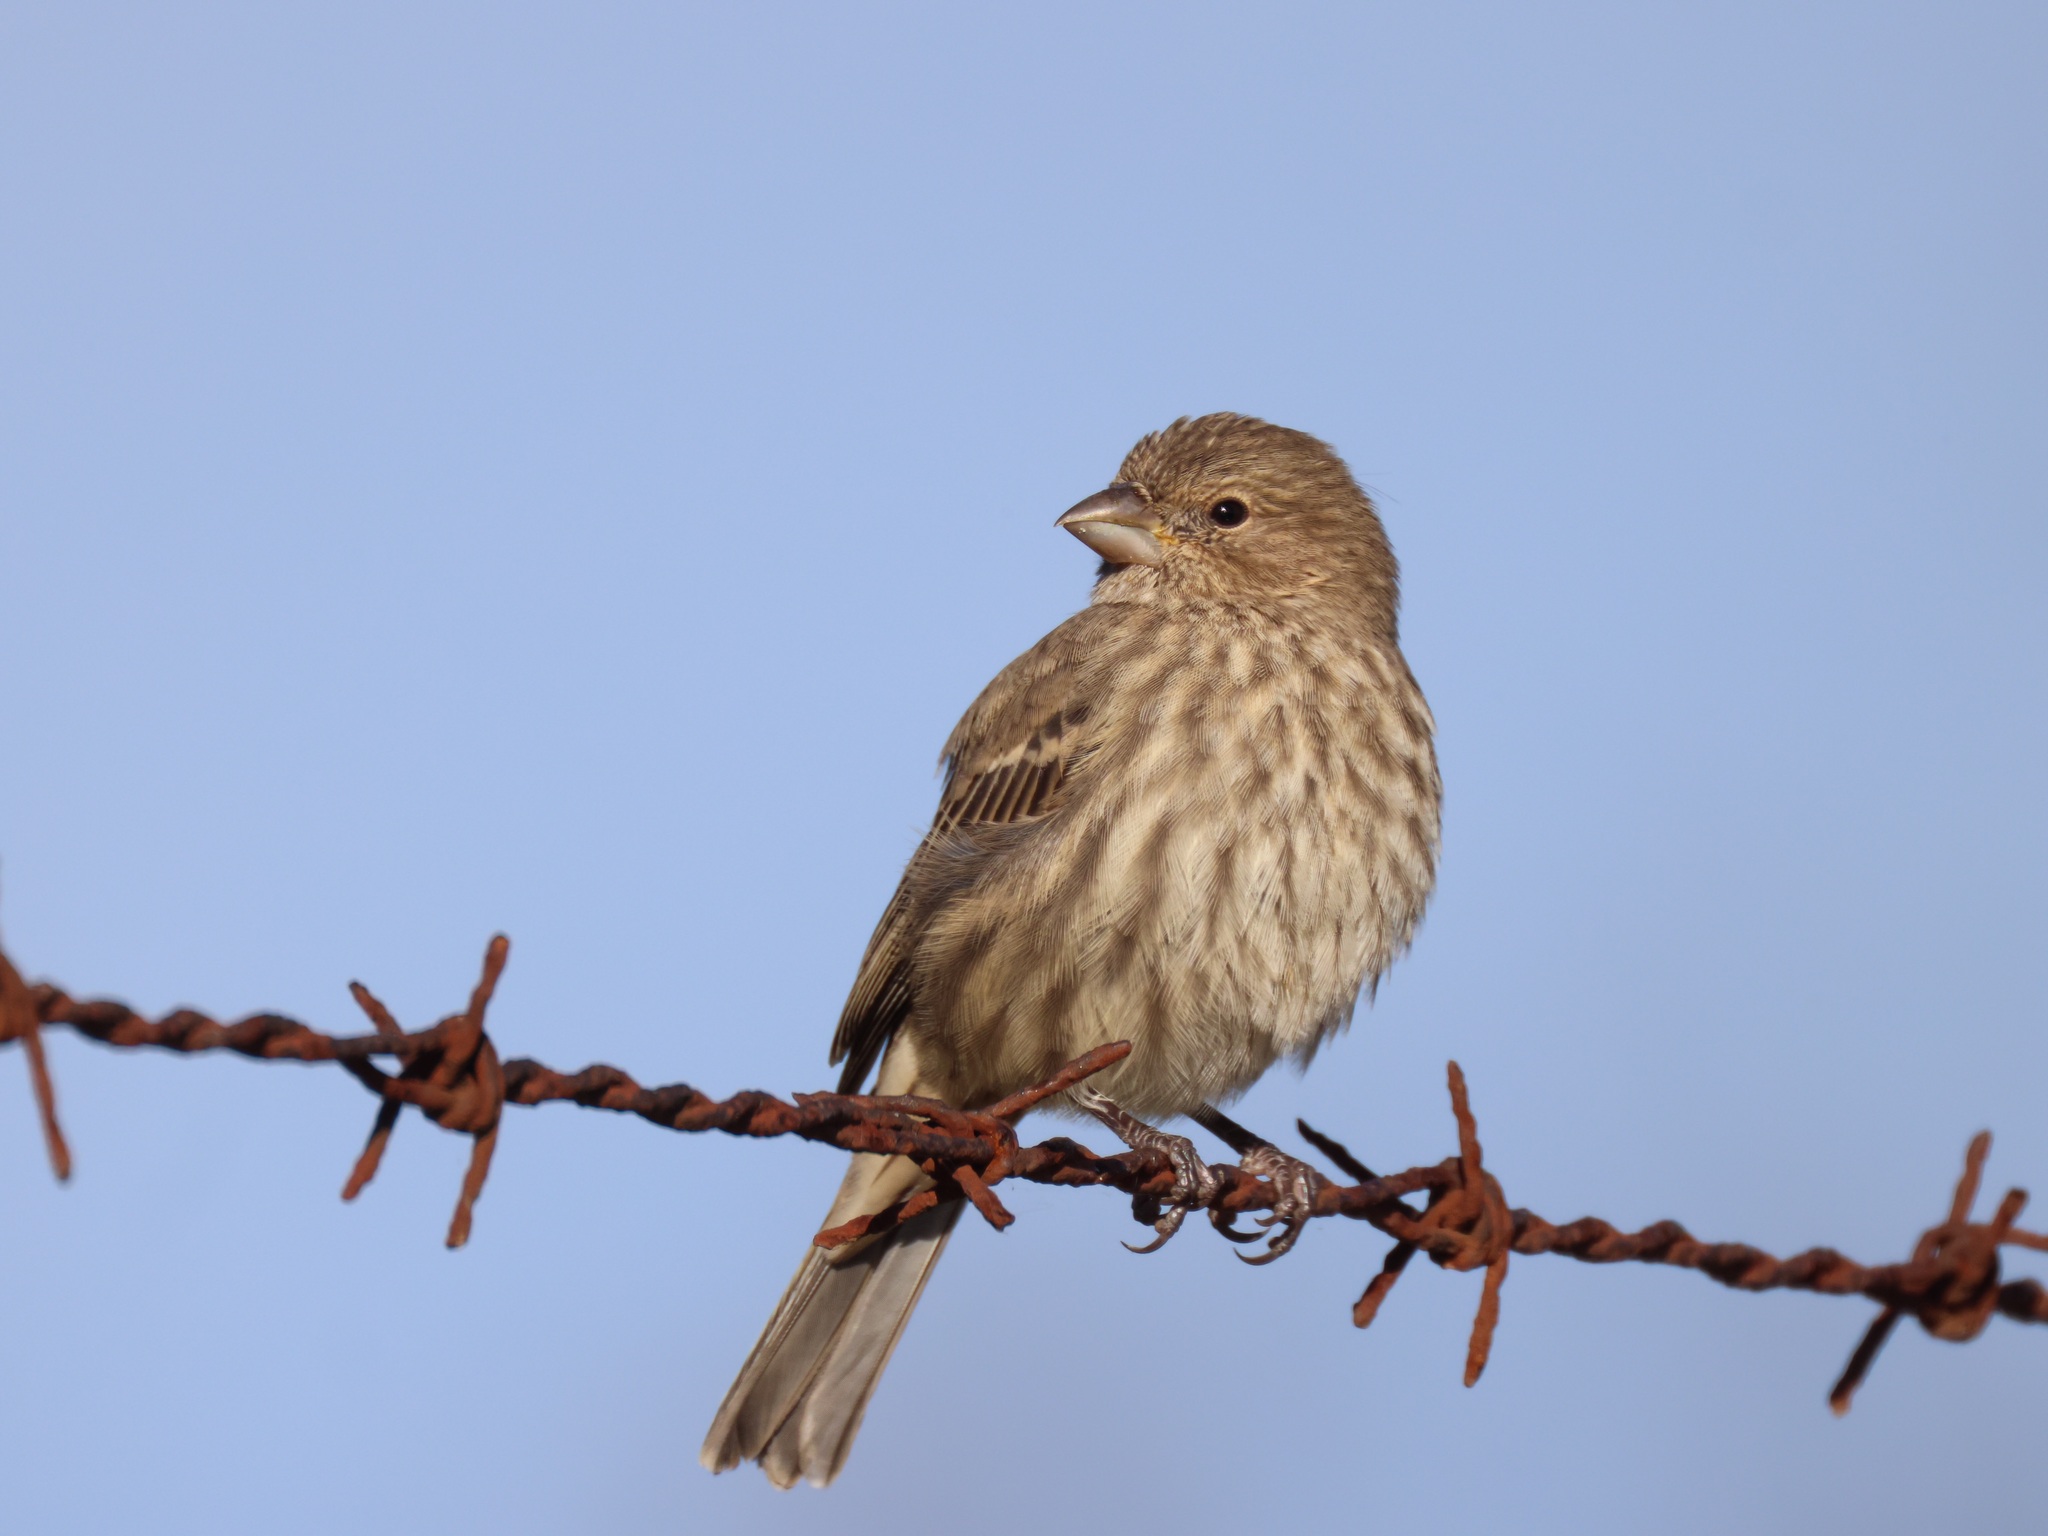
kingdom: Animalia
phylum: Chordata
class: Aves
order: Passeriformes
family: Fringillidae
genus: Haemorhous
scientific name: Haemorhous mexicanus
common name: House finch
